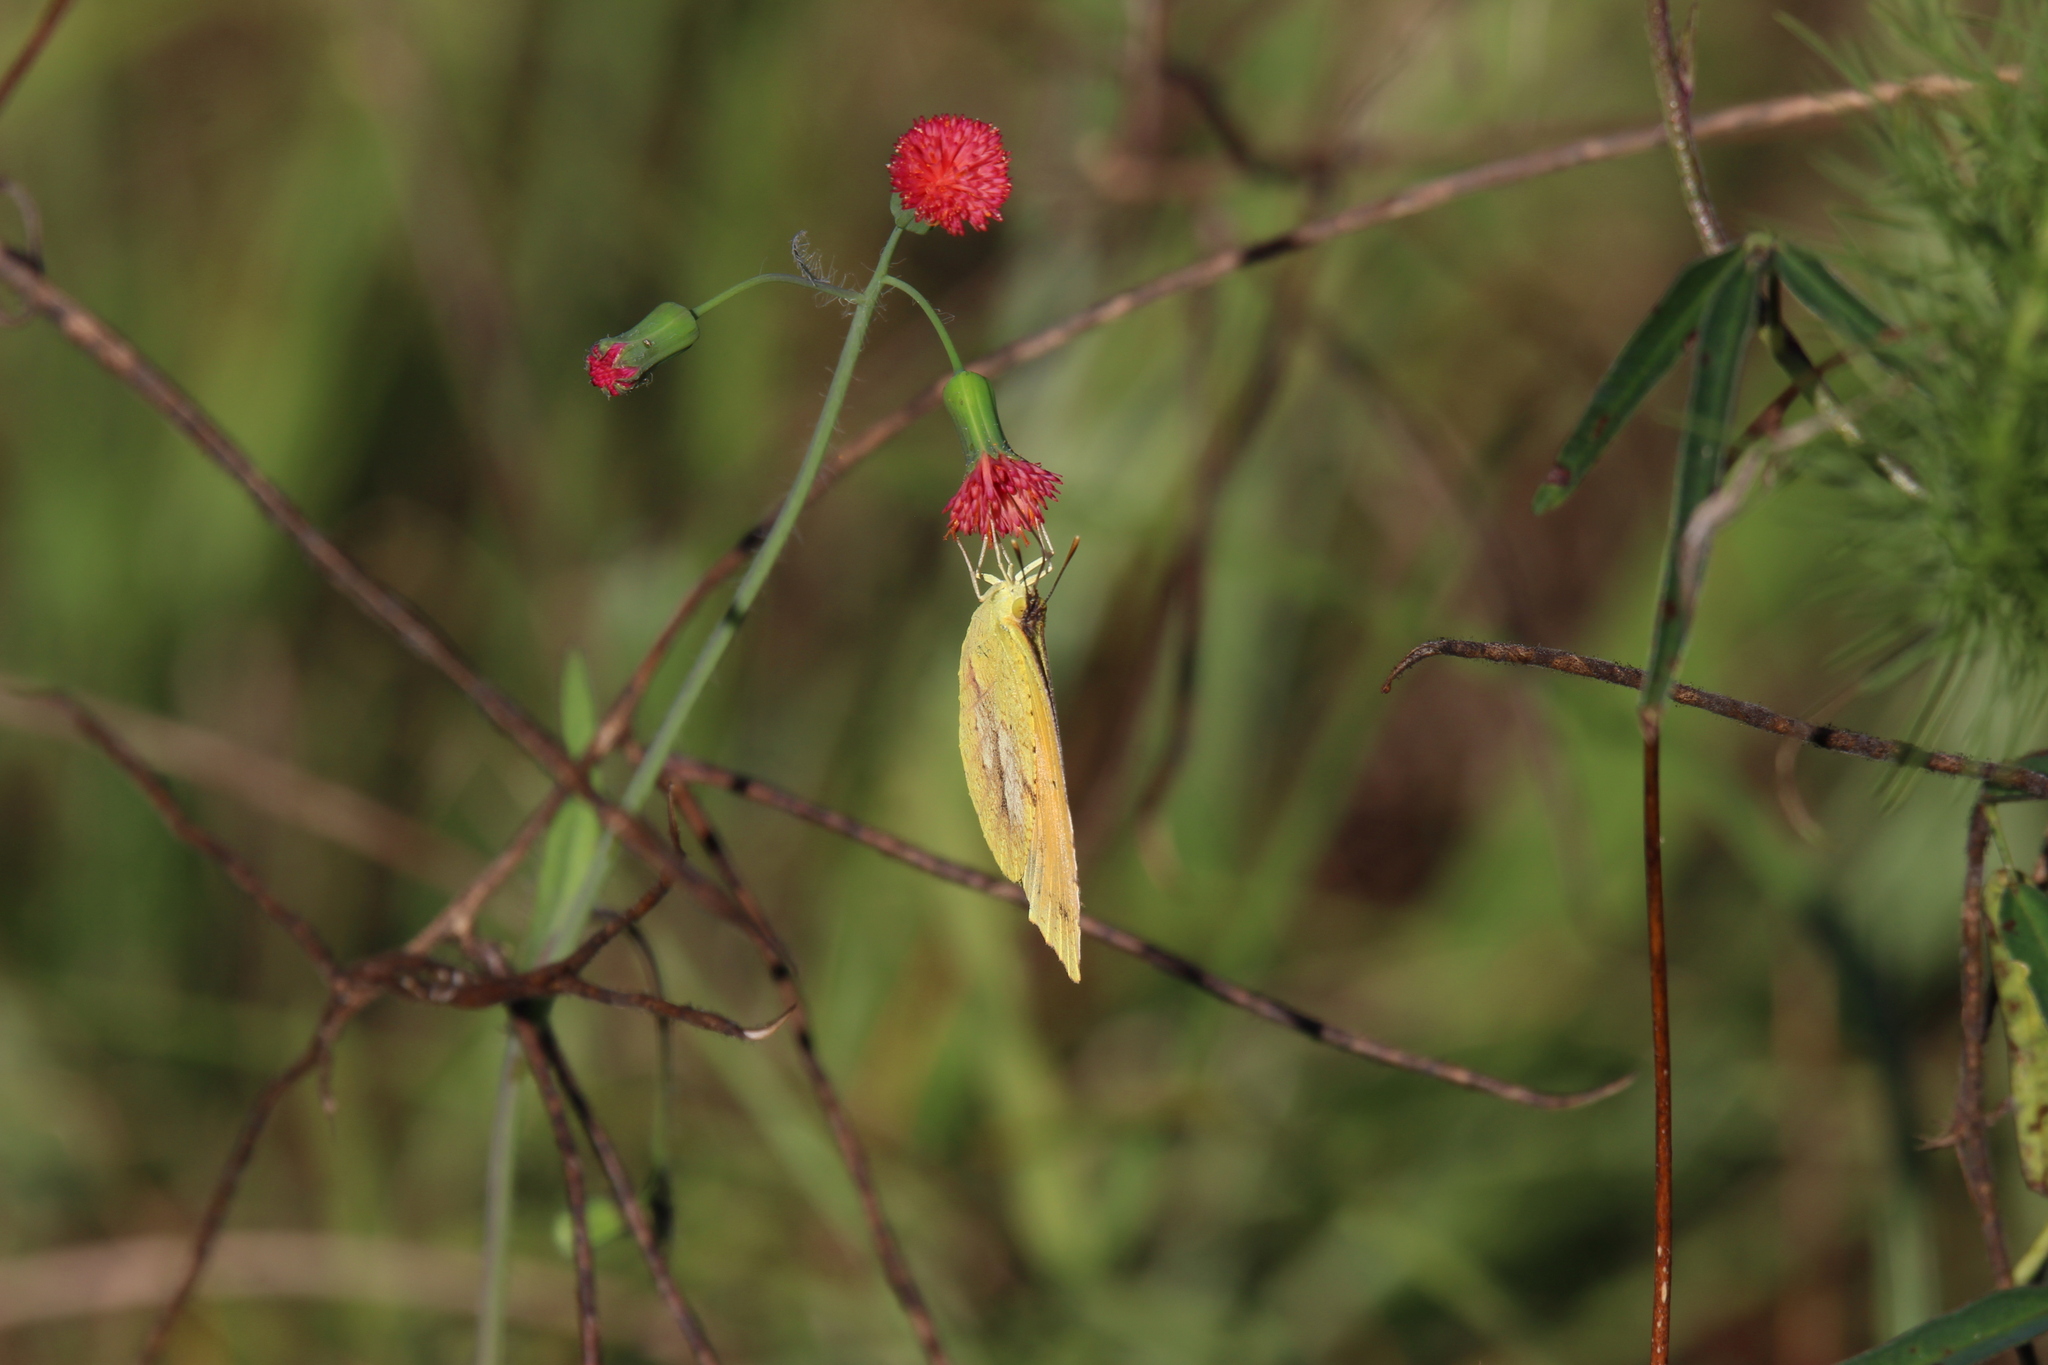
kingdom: Animalia
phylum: Arthropoda
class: Insecta
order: Lepidoptera
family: Pieridae
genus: Abaeis
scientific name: Abaeis nicippe
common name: Sleepy orange
